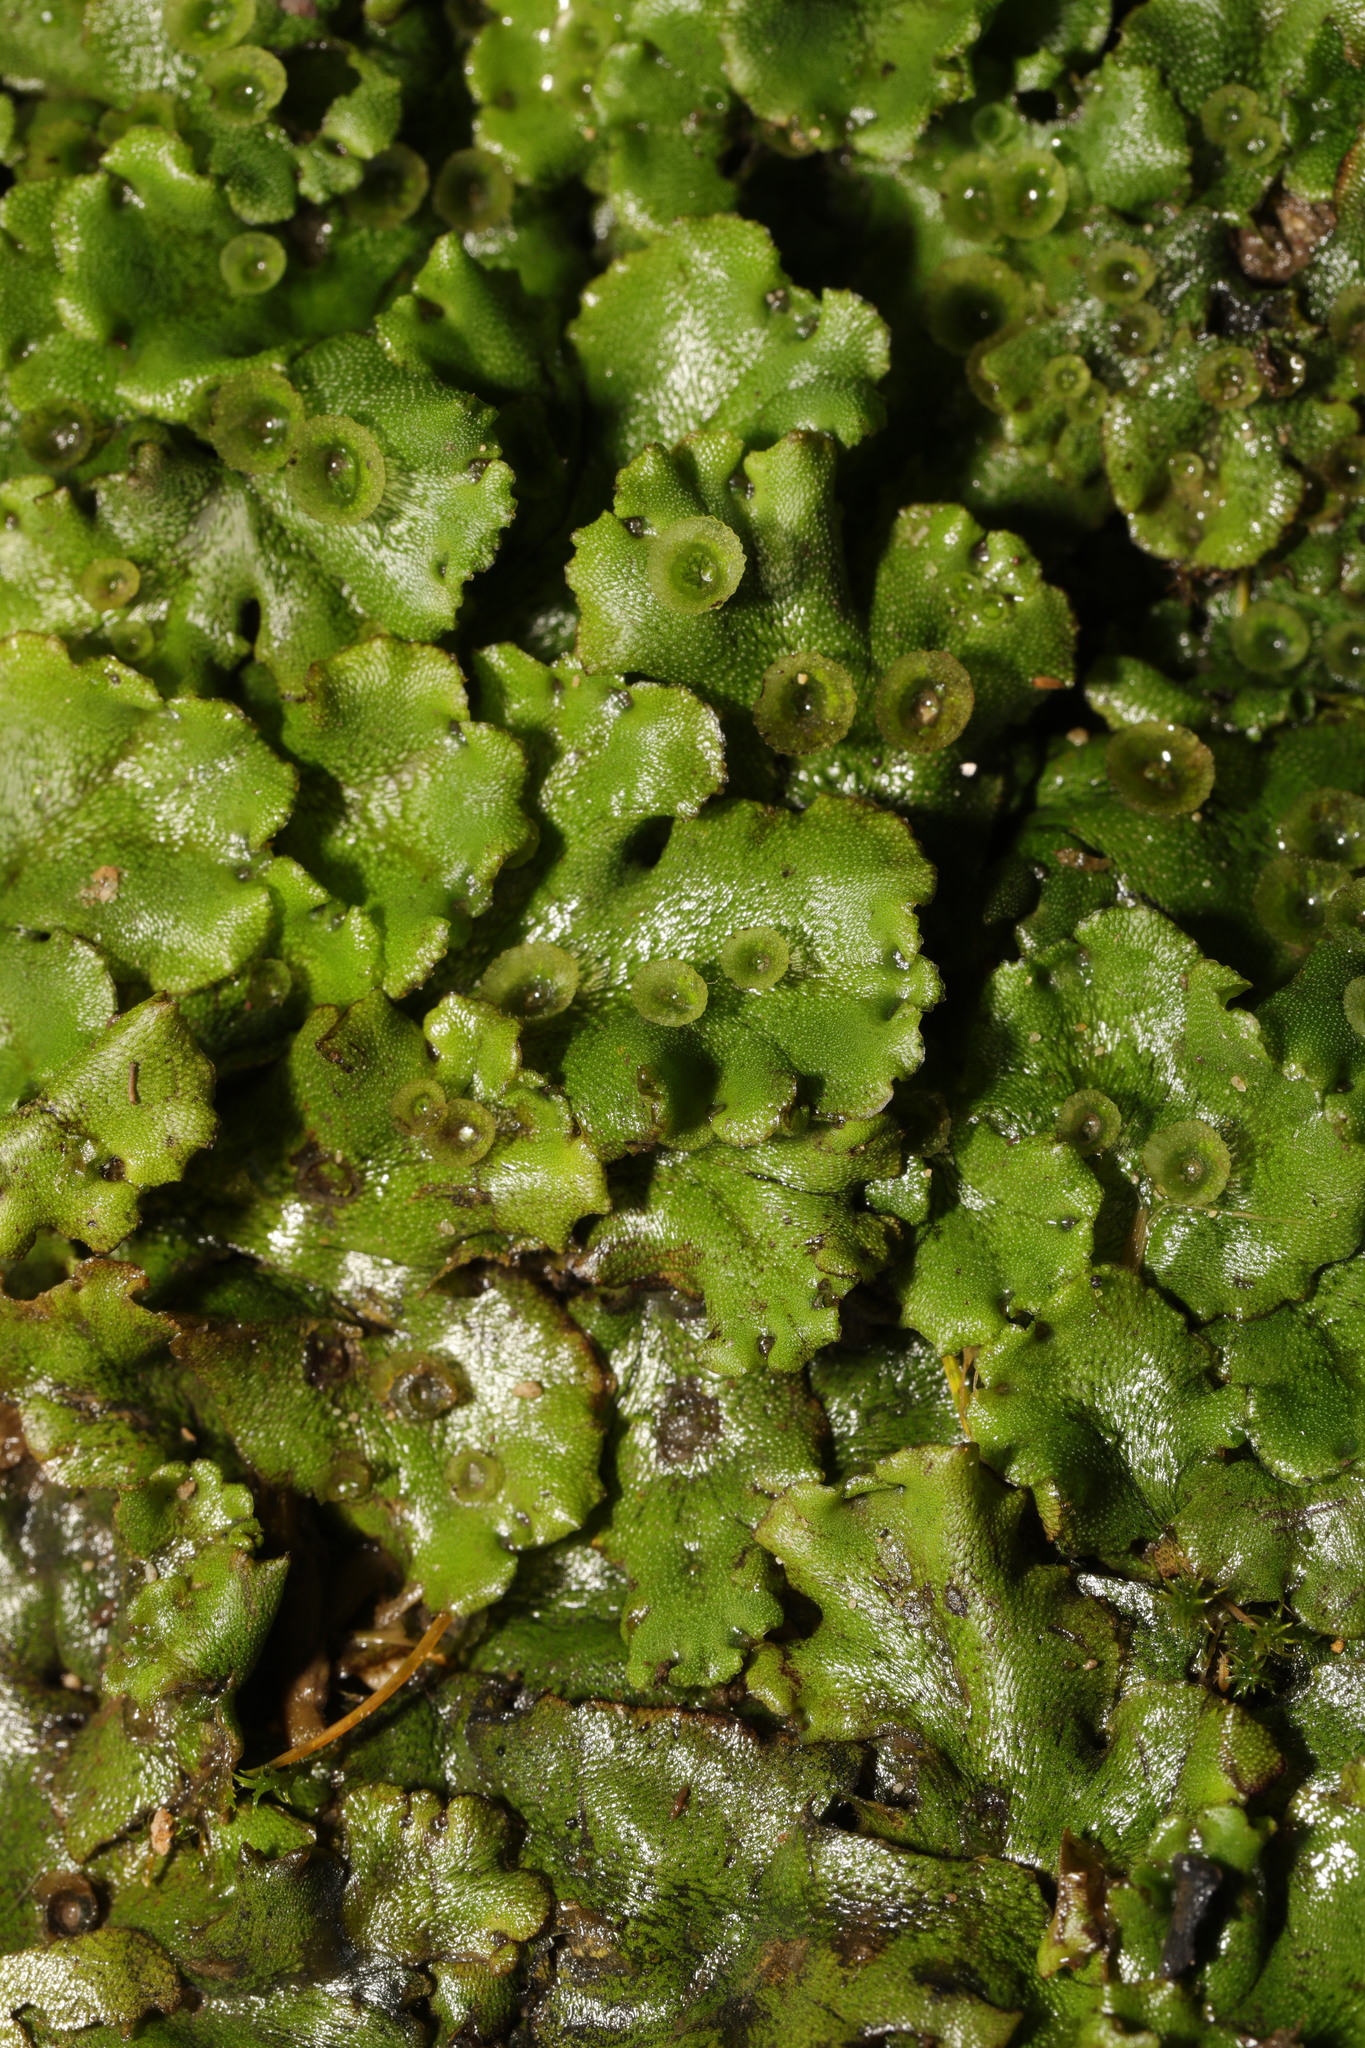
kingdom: Plantae
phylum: Marchantiophyta
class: Marchantiopsida
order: Marchantiales
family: Marchantiaceae
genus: Marchantia
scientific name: Marchantia polymorpha
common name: Common liverwort
